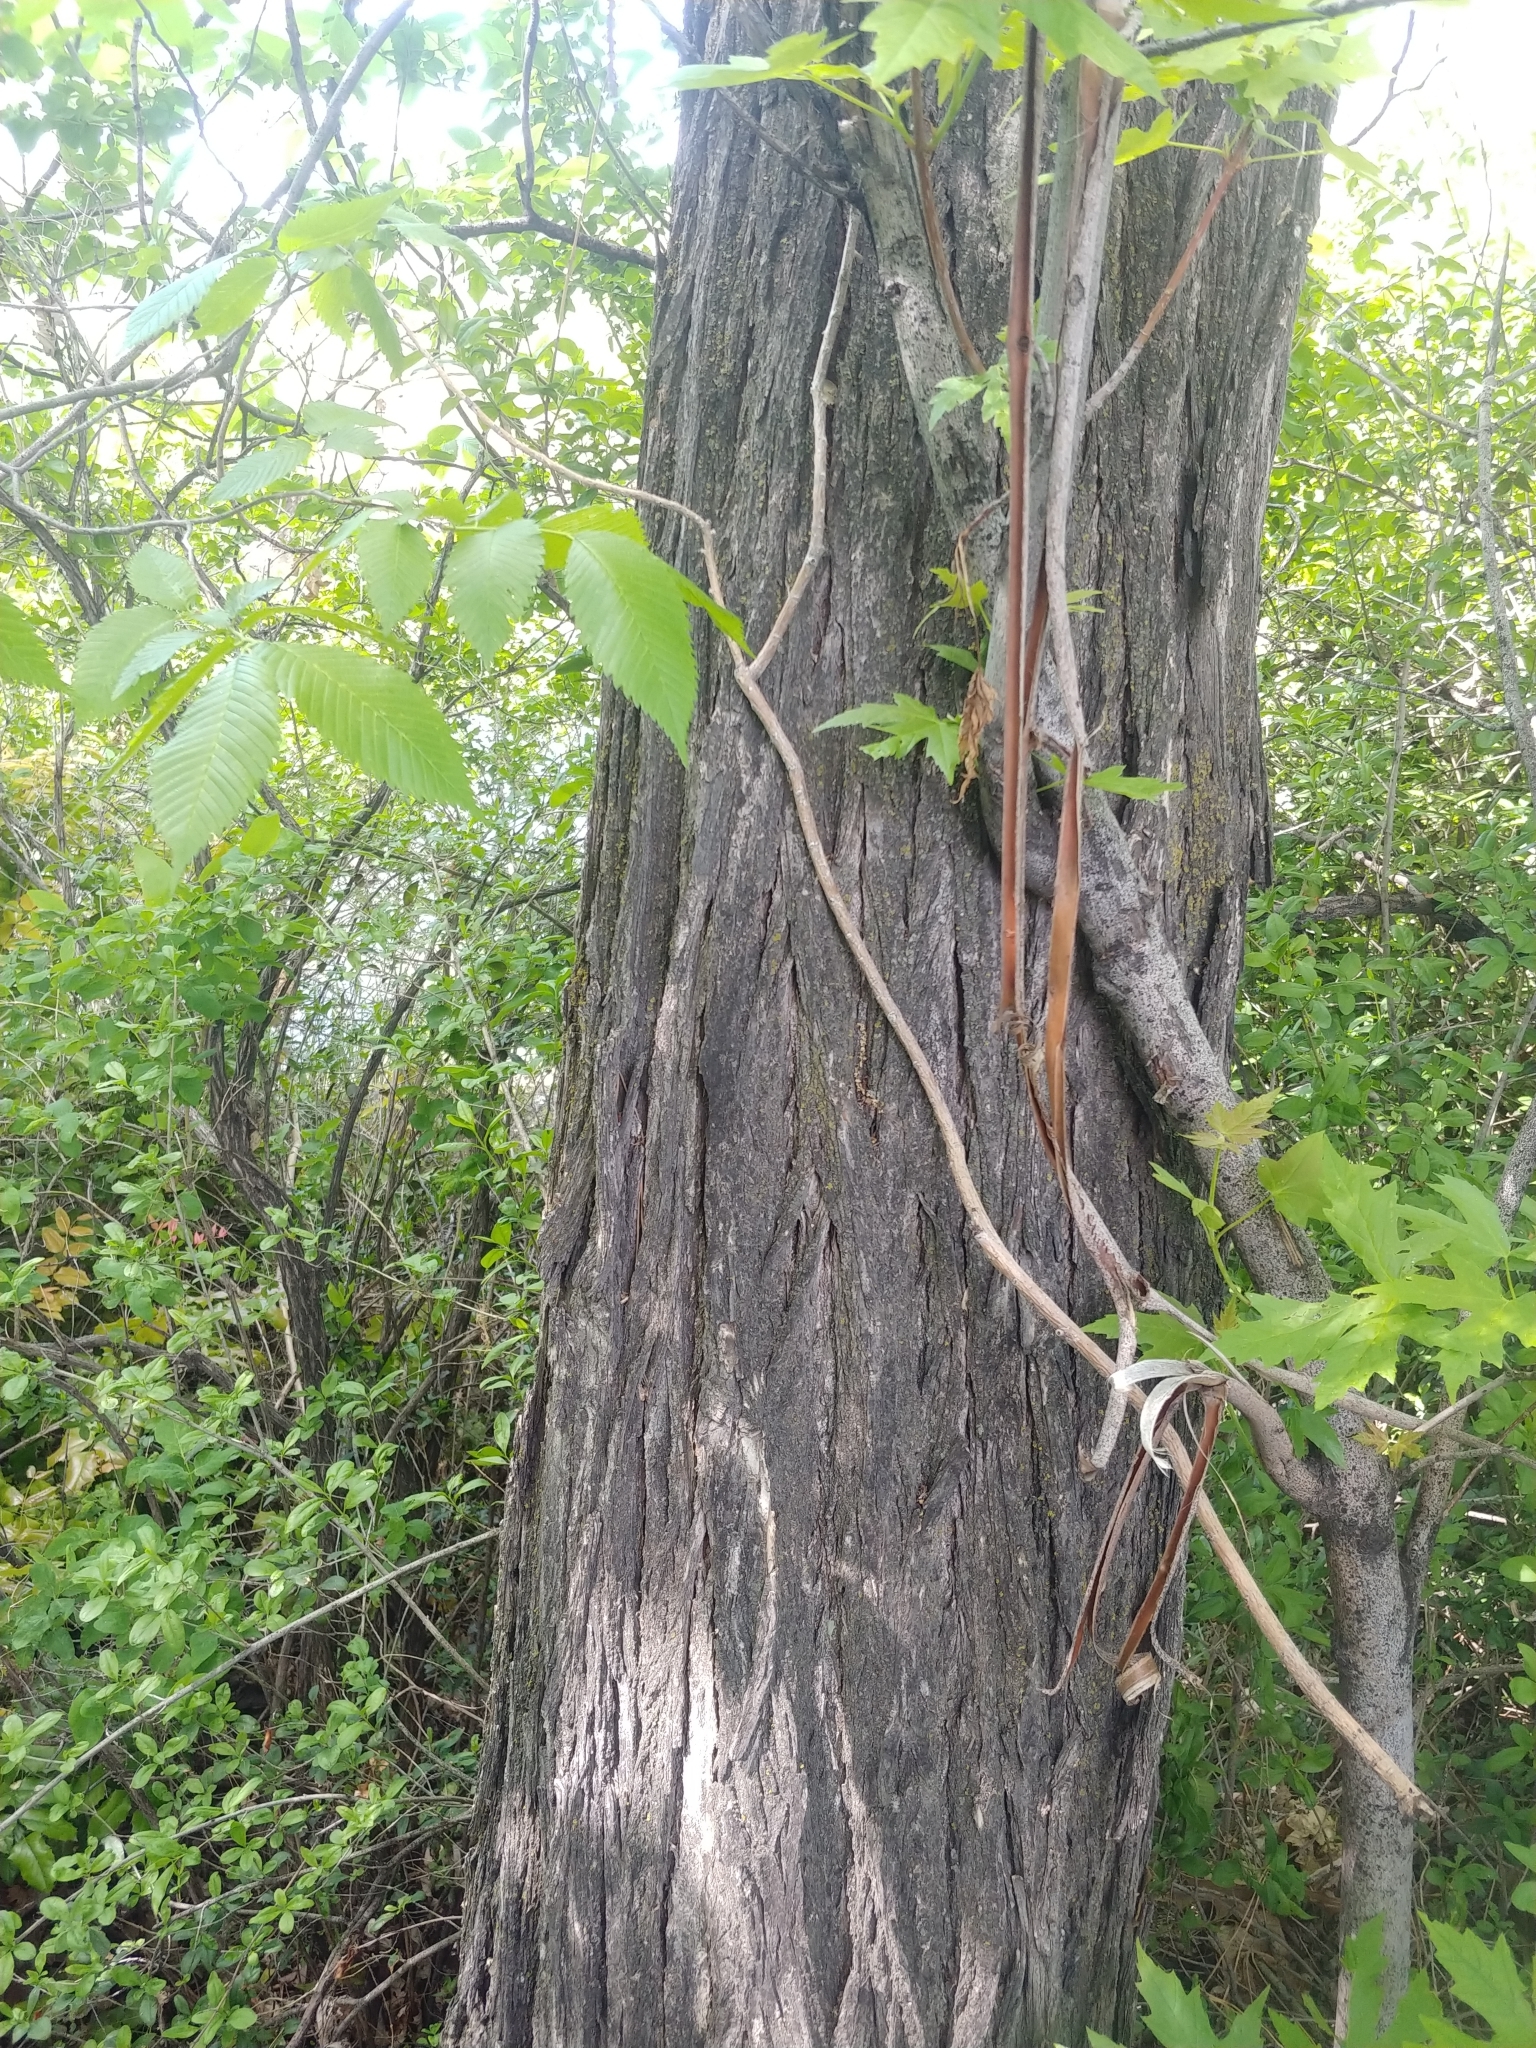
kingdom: Plantae
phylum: Tracheophyta
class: Magnoliopsida
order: Rosales
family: Ulmaceae
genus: Ulmus
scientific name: Ulmus americana
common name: American elm
